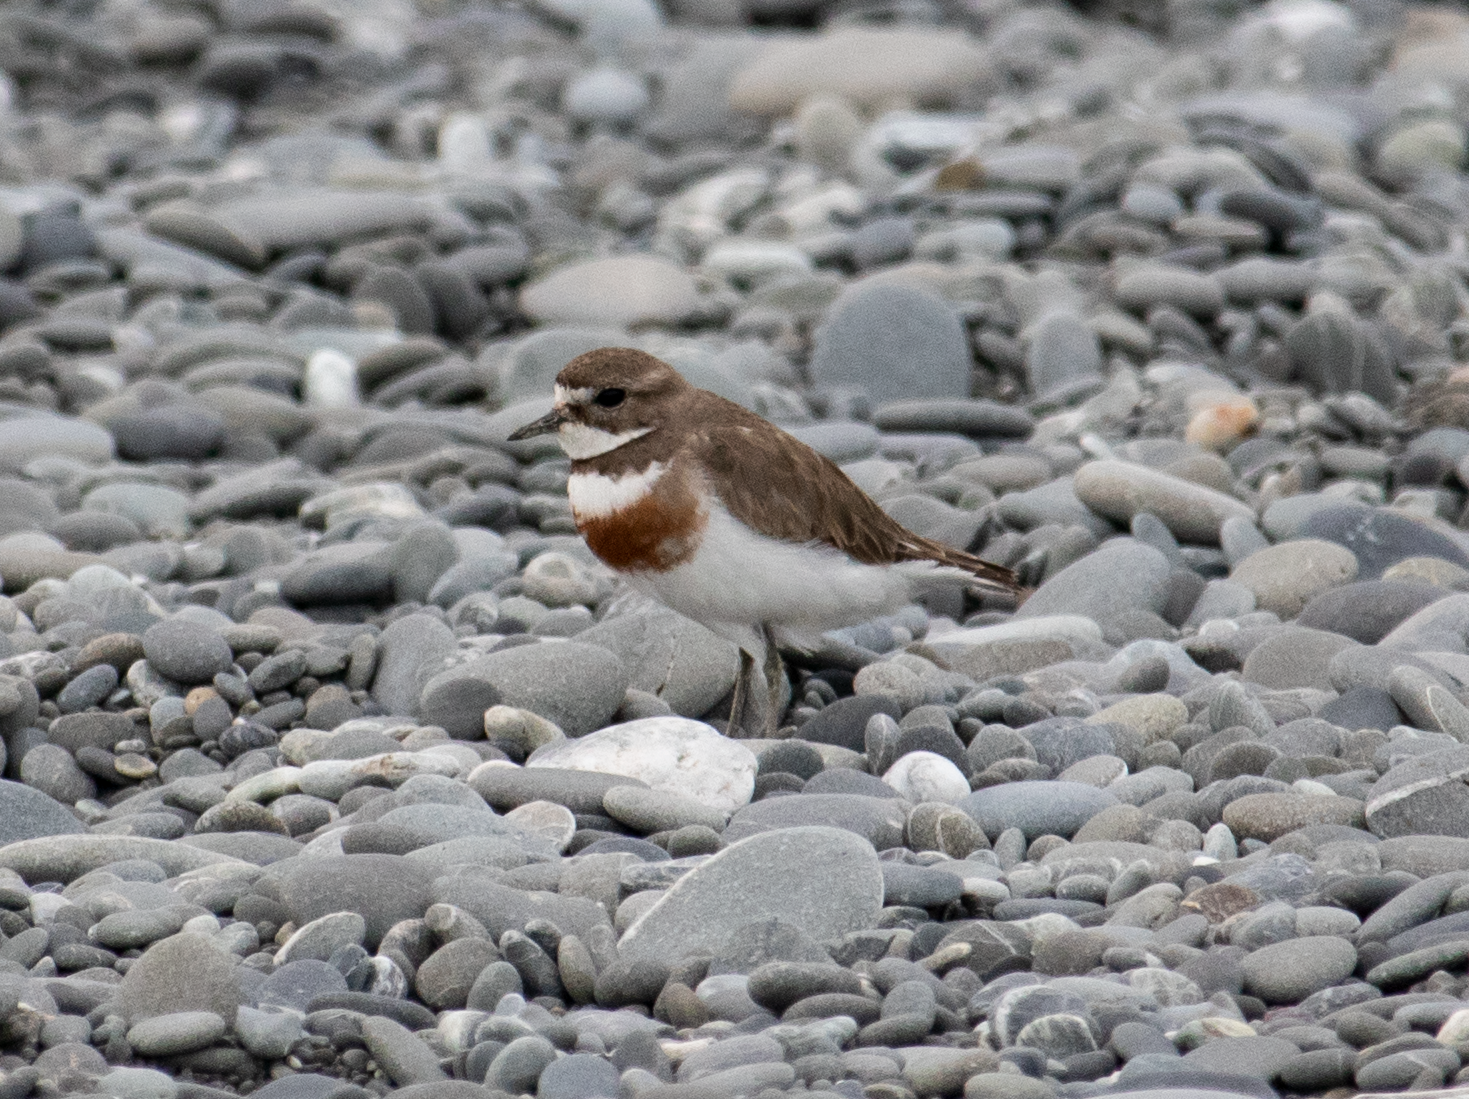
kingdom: Animalia
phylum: Chordata
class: Aves
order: Charadriiformes
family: Charadriidae
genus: Anarhynchus
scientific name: Anarhynchus
